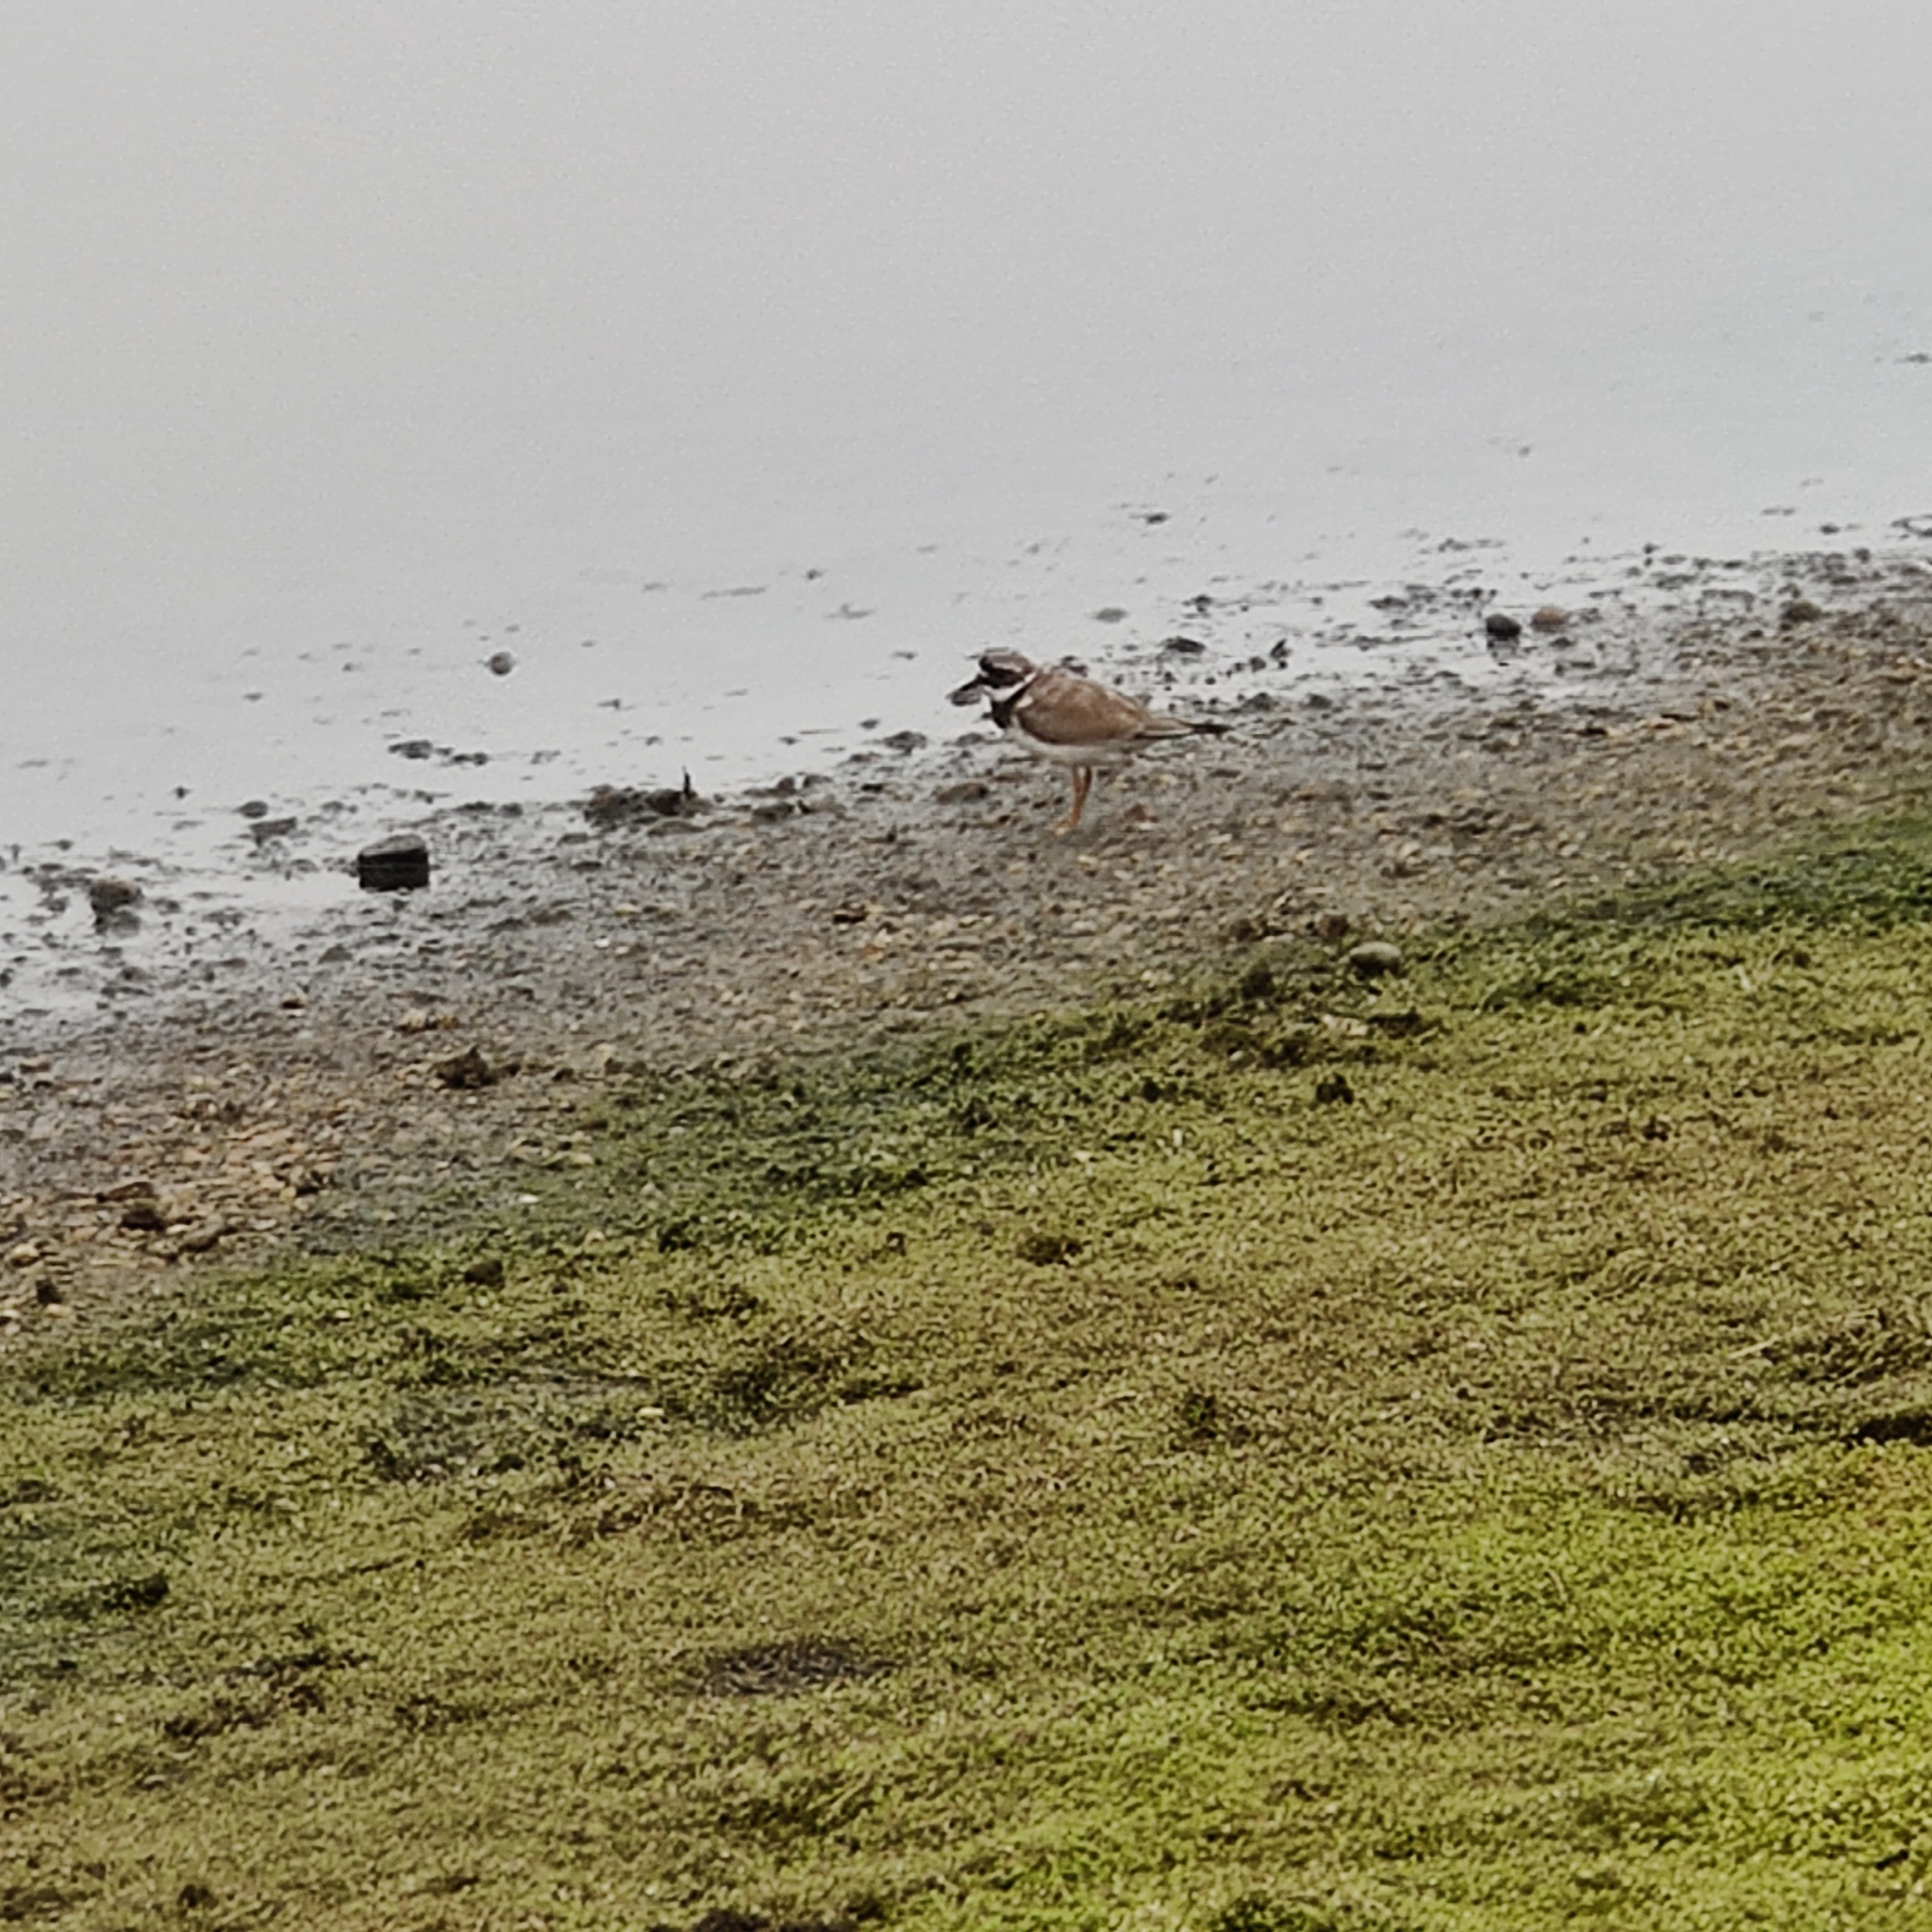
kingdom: Animalia
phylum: Chordata
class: Aves
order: Charadriiformes
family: Charadriidae
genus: Charadrius
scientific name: Charadrius hiaticula
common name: Common ringed plover
